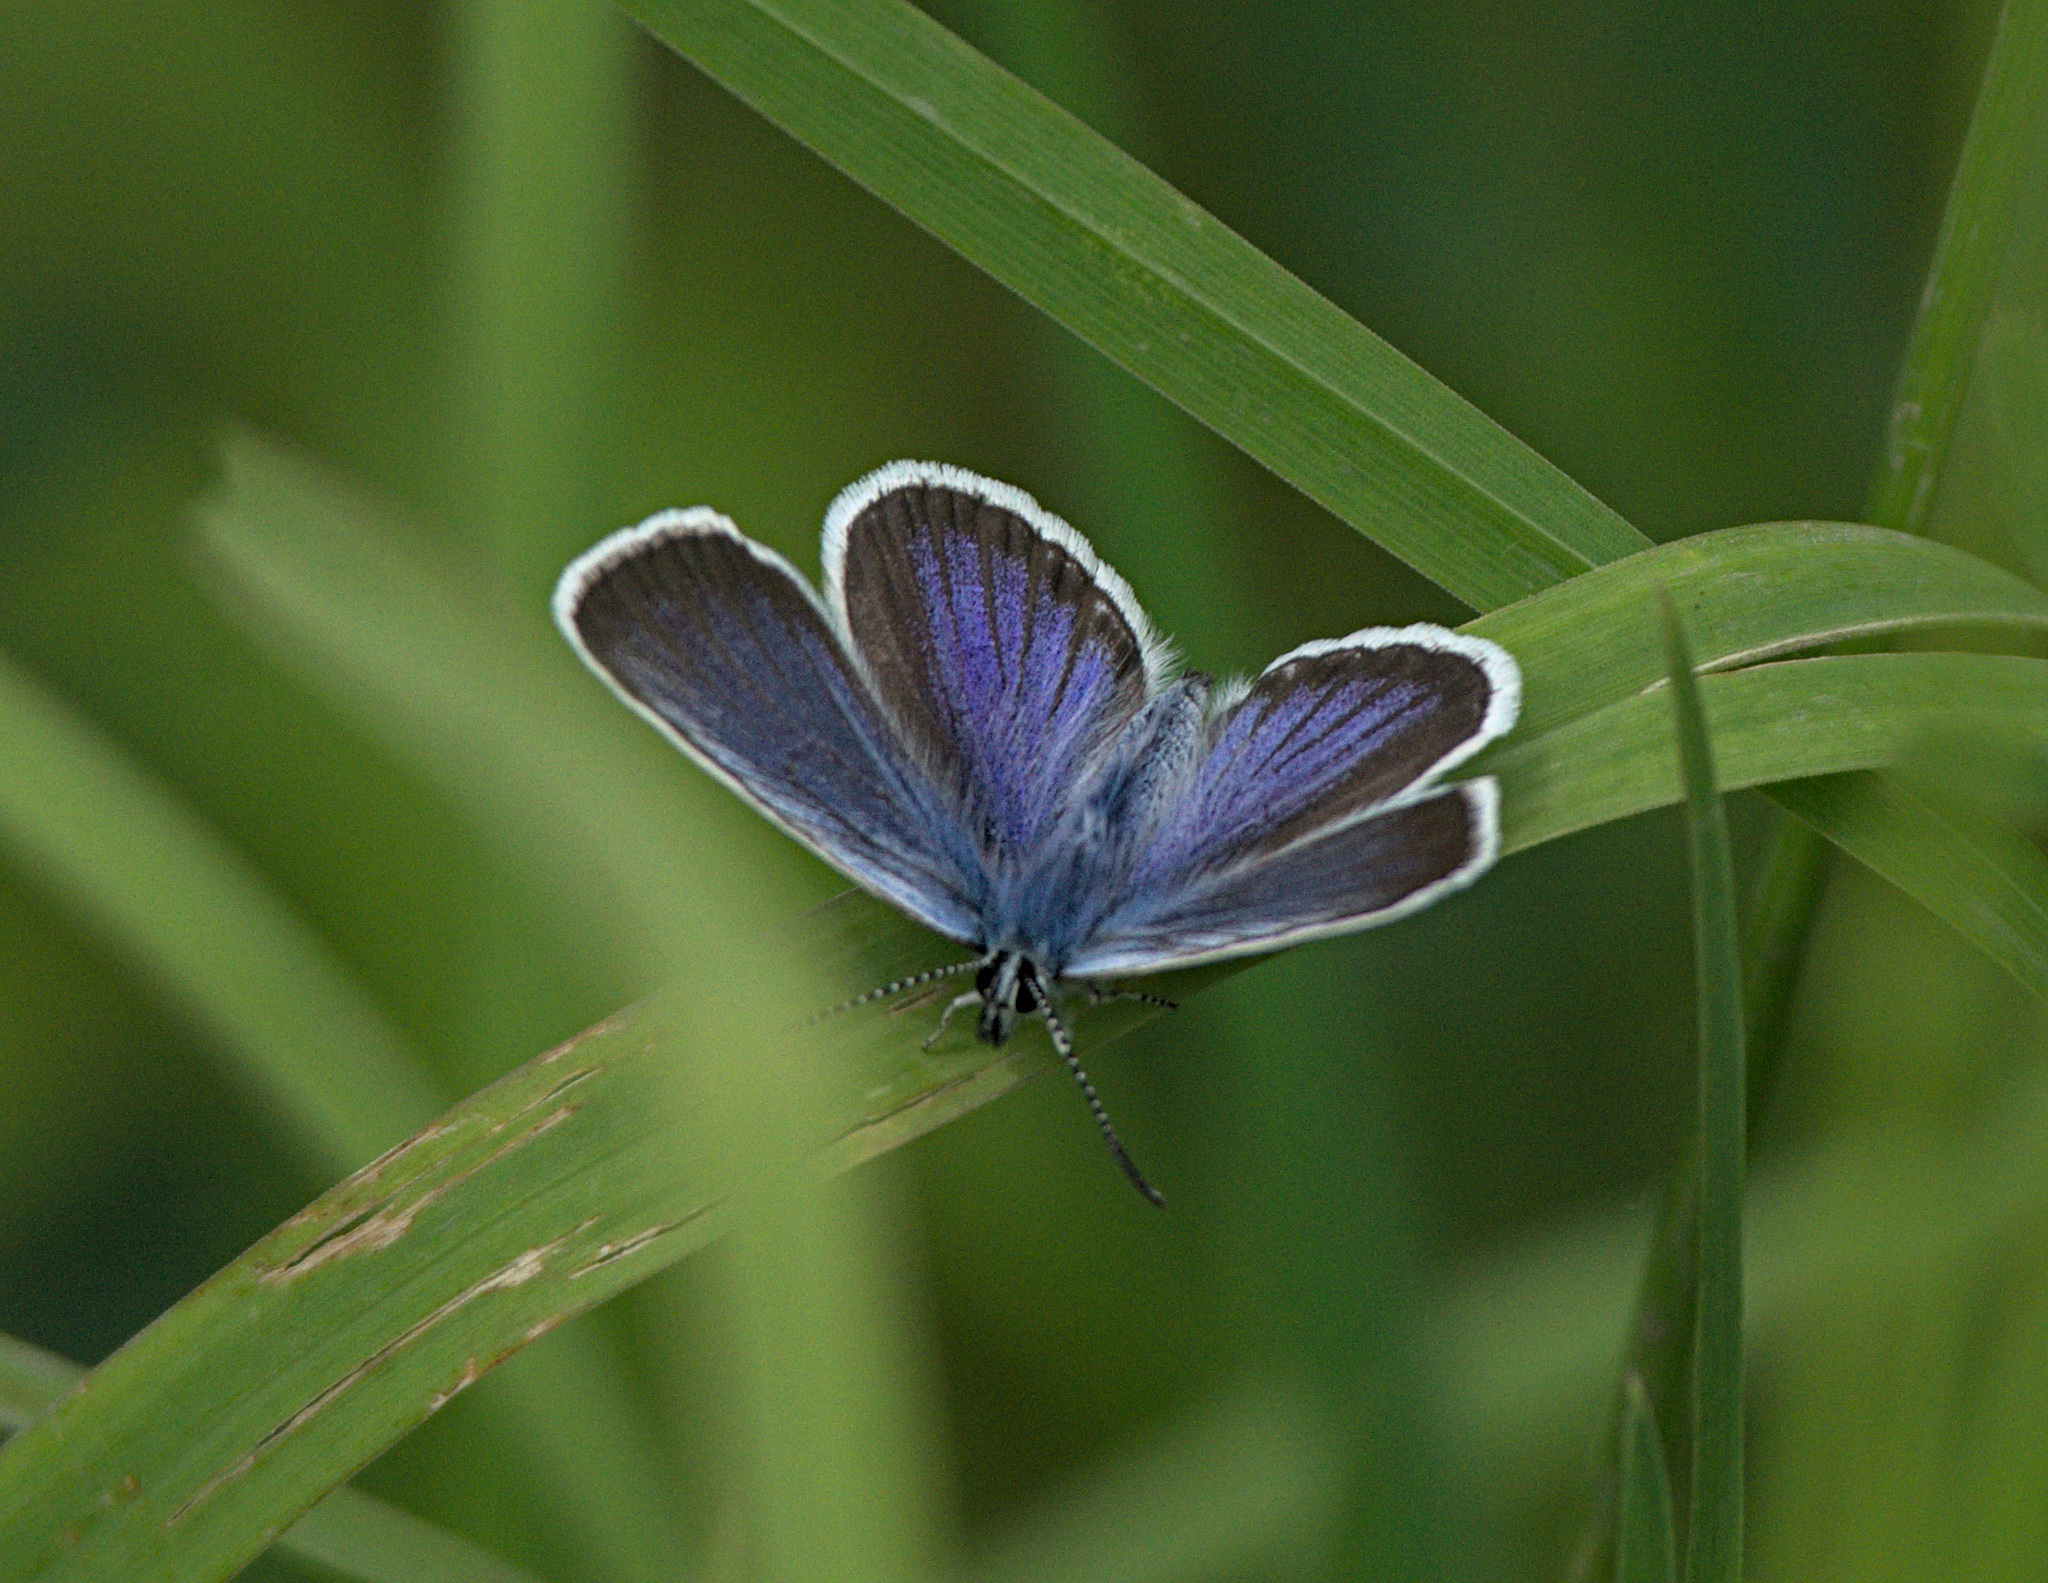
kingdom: Animalia
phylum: Arthropoda
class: Insecta
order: Lepidoptera
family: Lycaenidae
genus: Plebejus
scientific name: Plebejus argus
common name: Silver-studded blue
